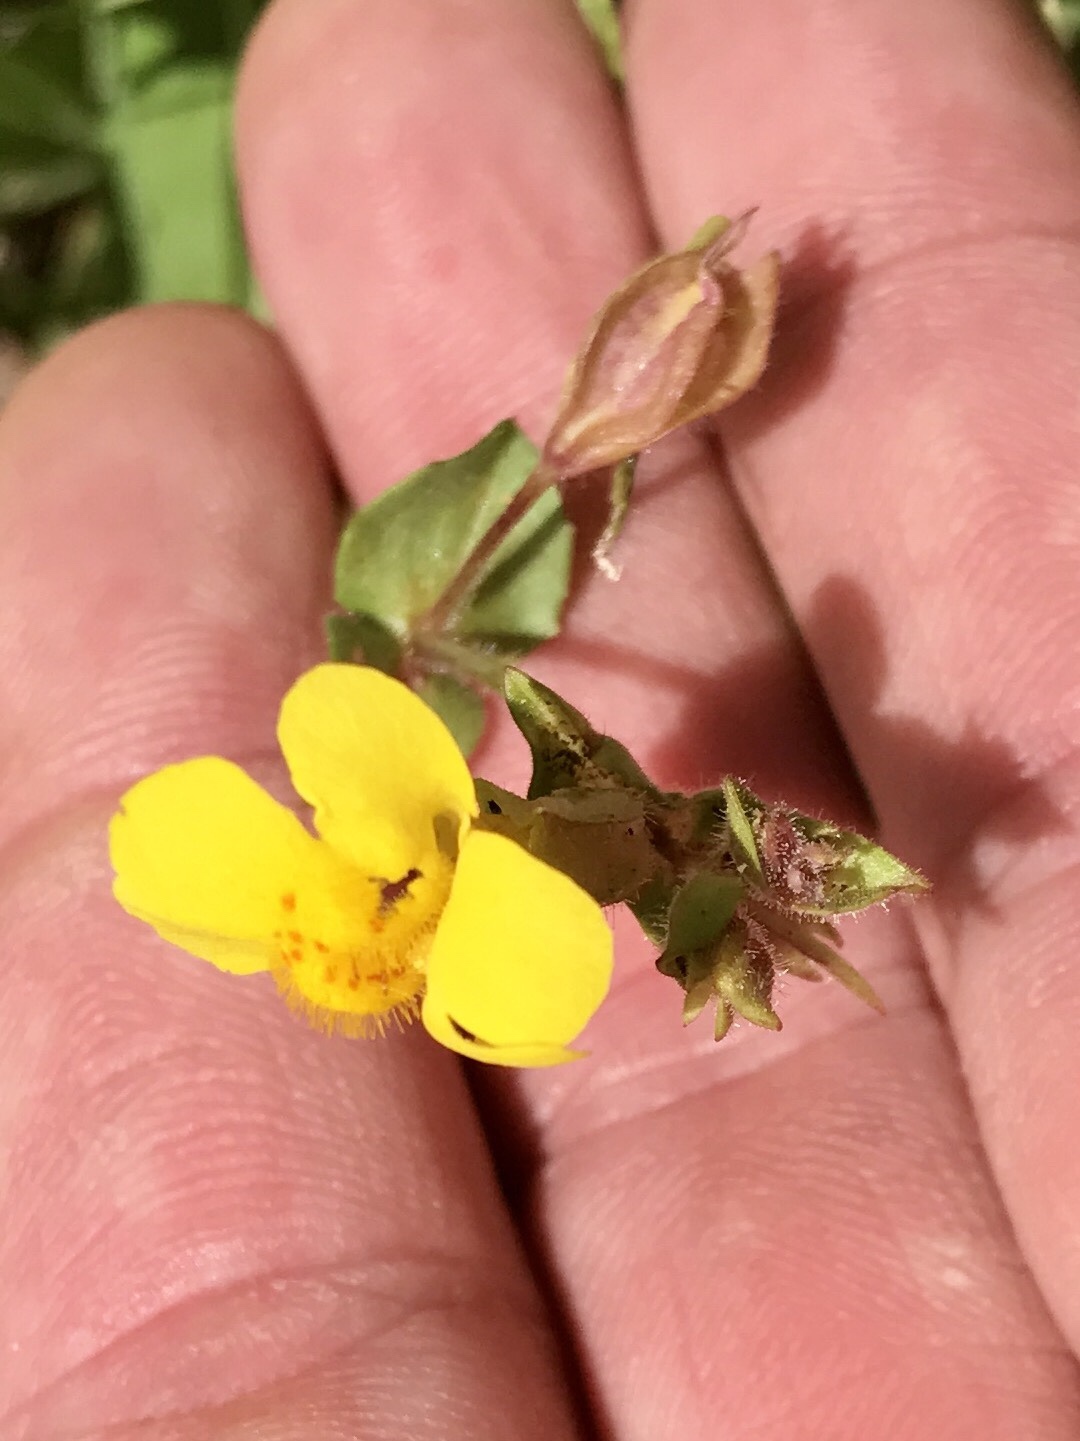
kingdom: Plantae
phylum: Tracheophyta
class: Magnoliopsida
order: Lamiales
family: Phrymaceae
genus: Erythranthe
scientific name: Erythranthe guttata
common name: Monkeyflower
